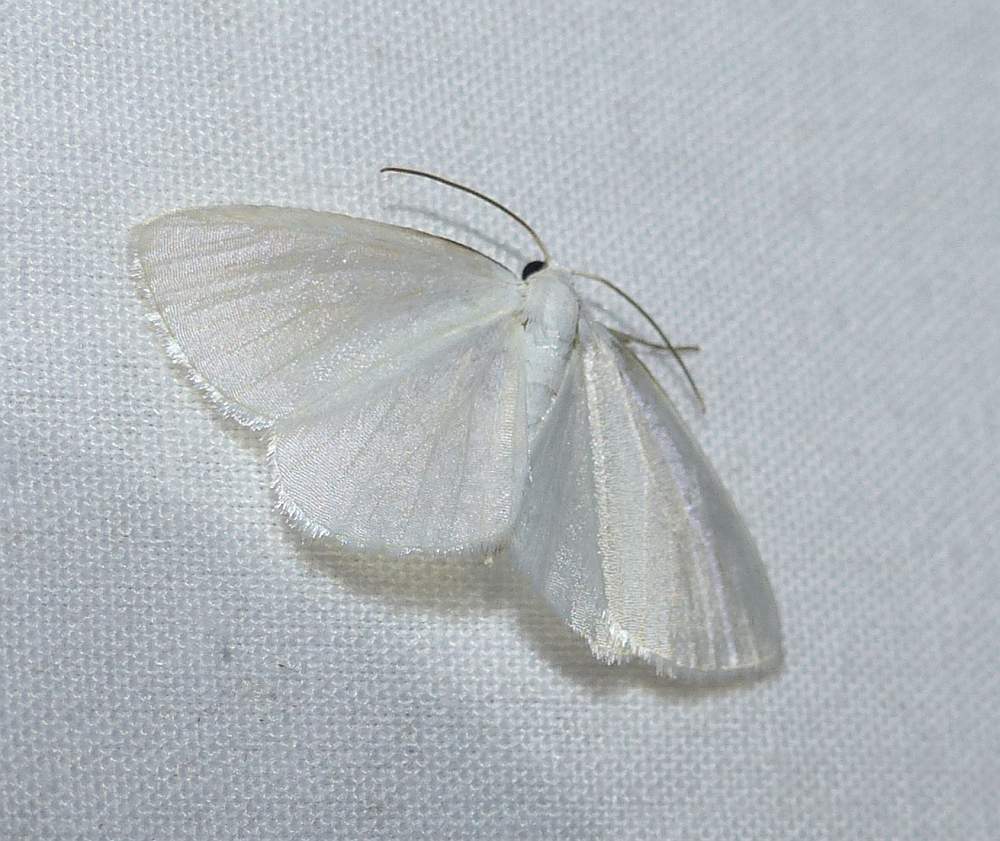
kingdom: Animalia
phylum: Arthropoda
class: Insecta
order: Lepidoptera
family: Geometridae
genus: Lomographa
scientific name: Lomographa vestaliata
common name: White spring moth
